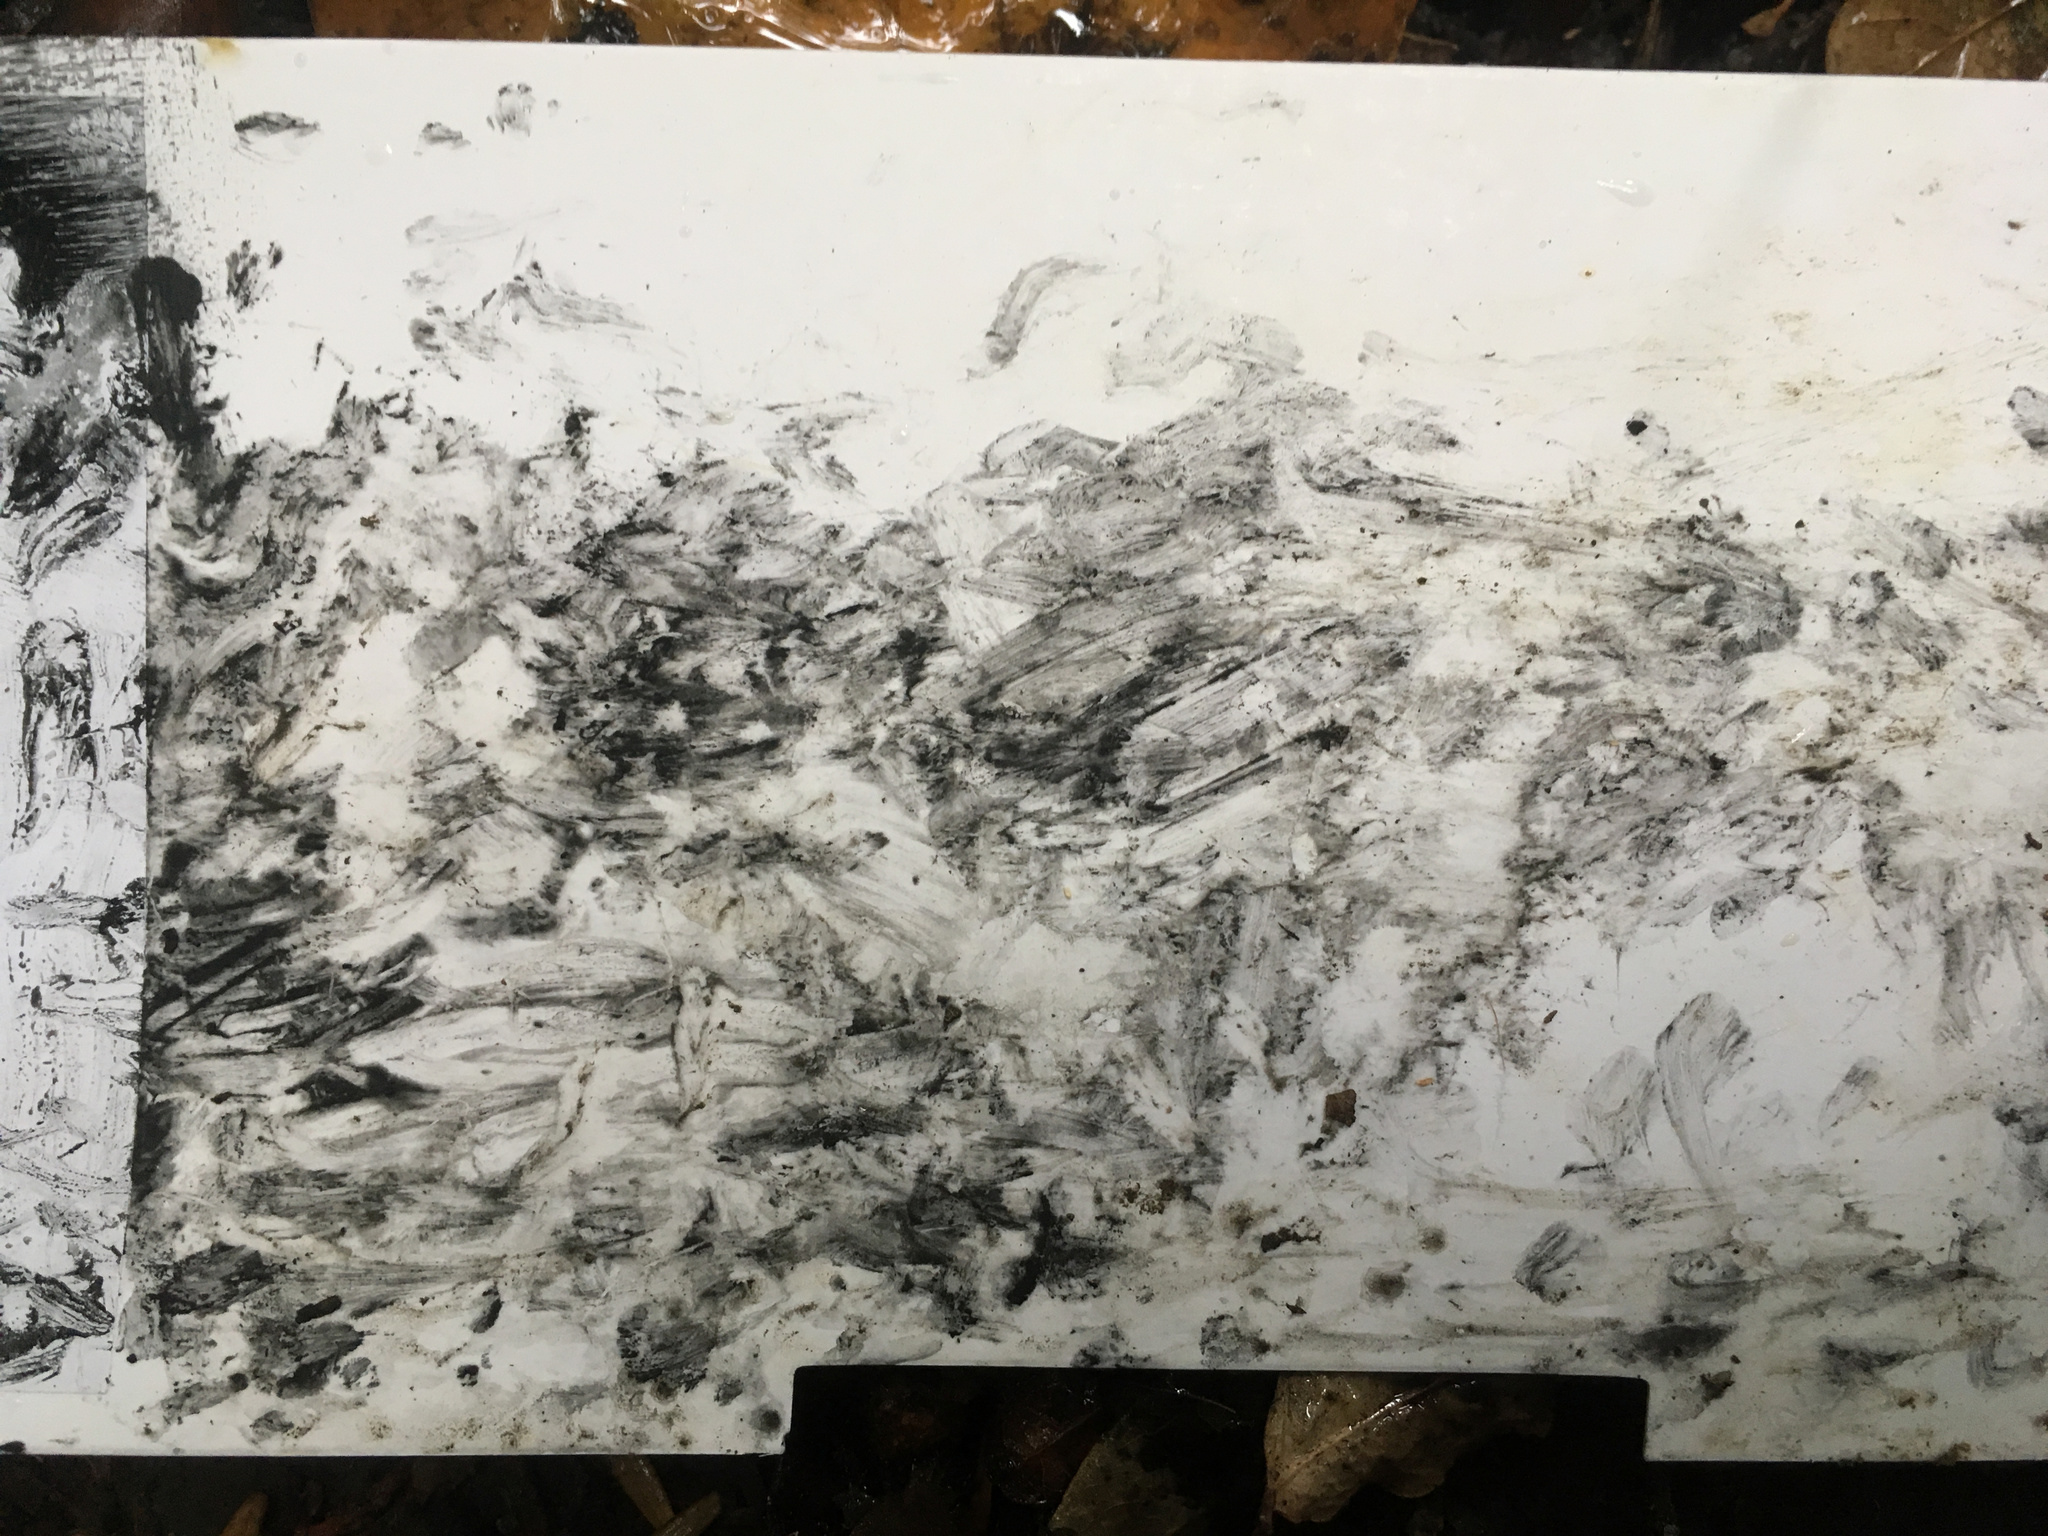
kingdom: Animalia
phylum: Chordata
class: Mammalia
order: Diprotodontia
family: Phalangeridae
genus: Trichosurus
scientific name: Trichosurus vulpecula
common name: Common brushtail
